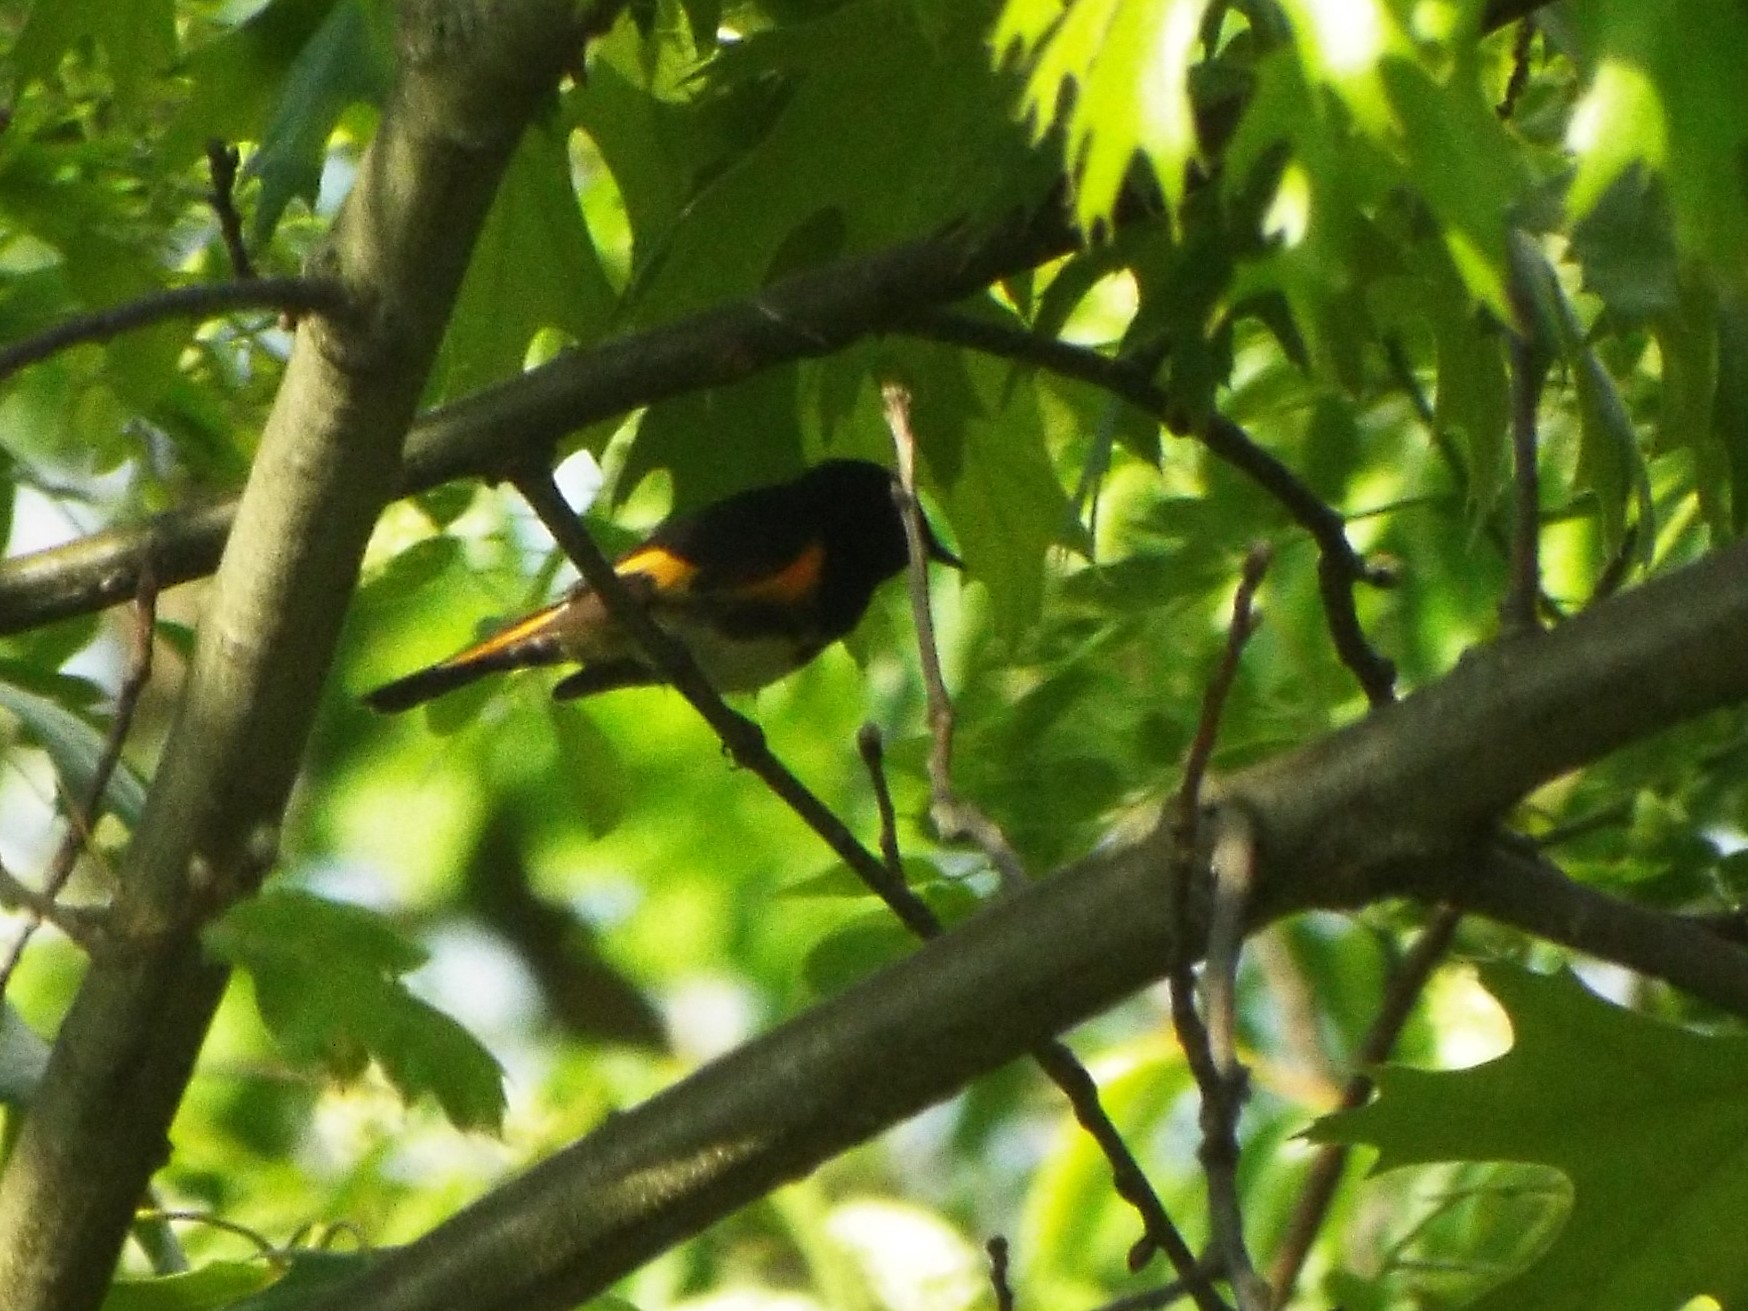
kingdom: Animalia
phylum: Chordata
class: Aves
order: Passeriformes
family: Parulidae
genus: Setophaga
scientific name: Setophaga ruticilla
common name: American redstart
